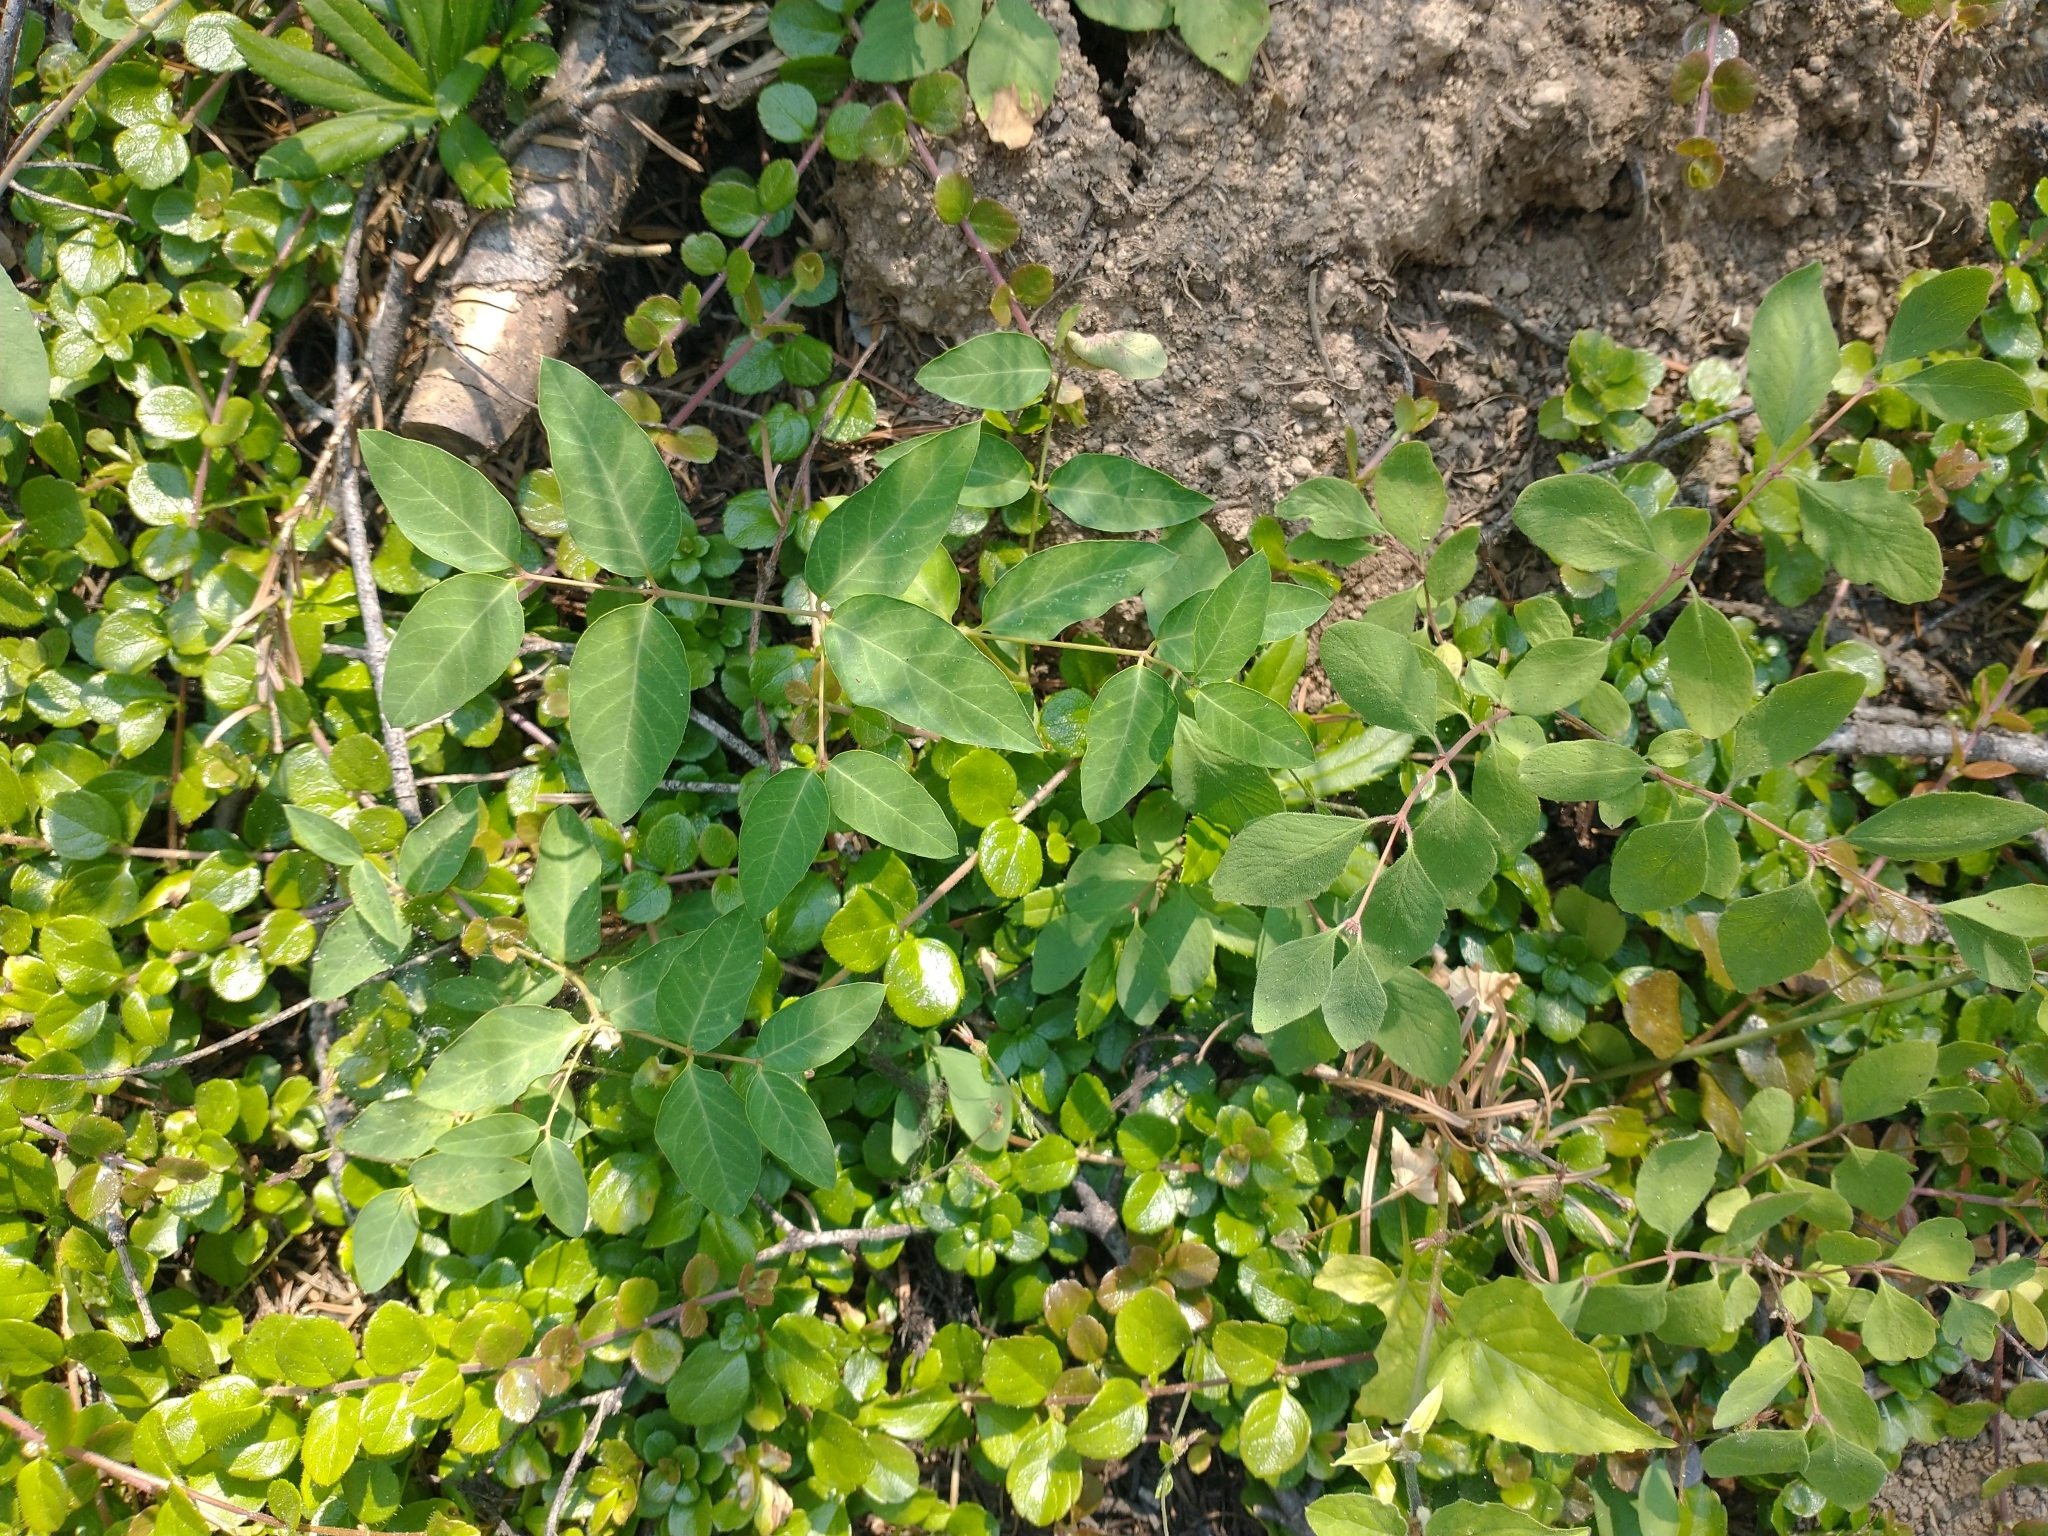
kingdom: Plantae
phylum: Tracheophyta
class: Magnoliopsida
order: Gentianales
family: Apocynaceae
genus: Apocynum
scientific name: Apocynum androsaemifolium
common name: Spreading dogbane
